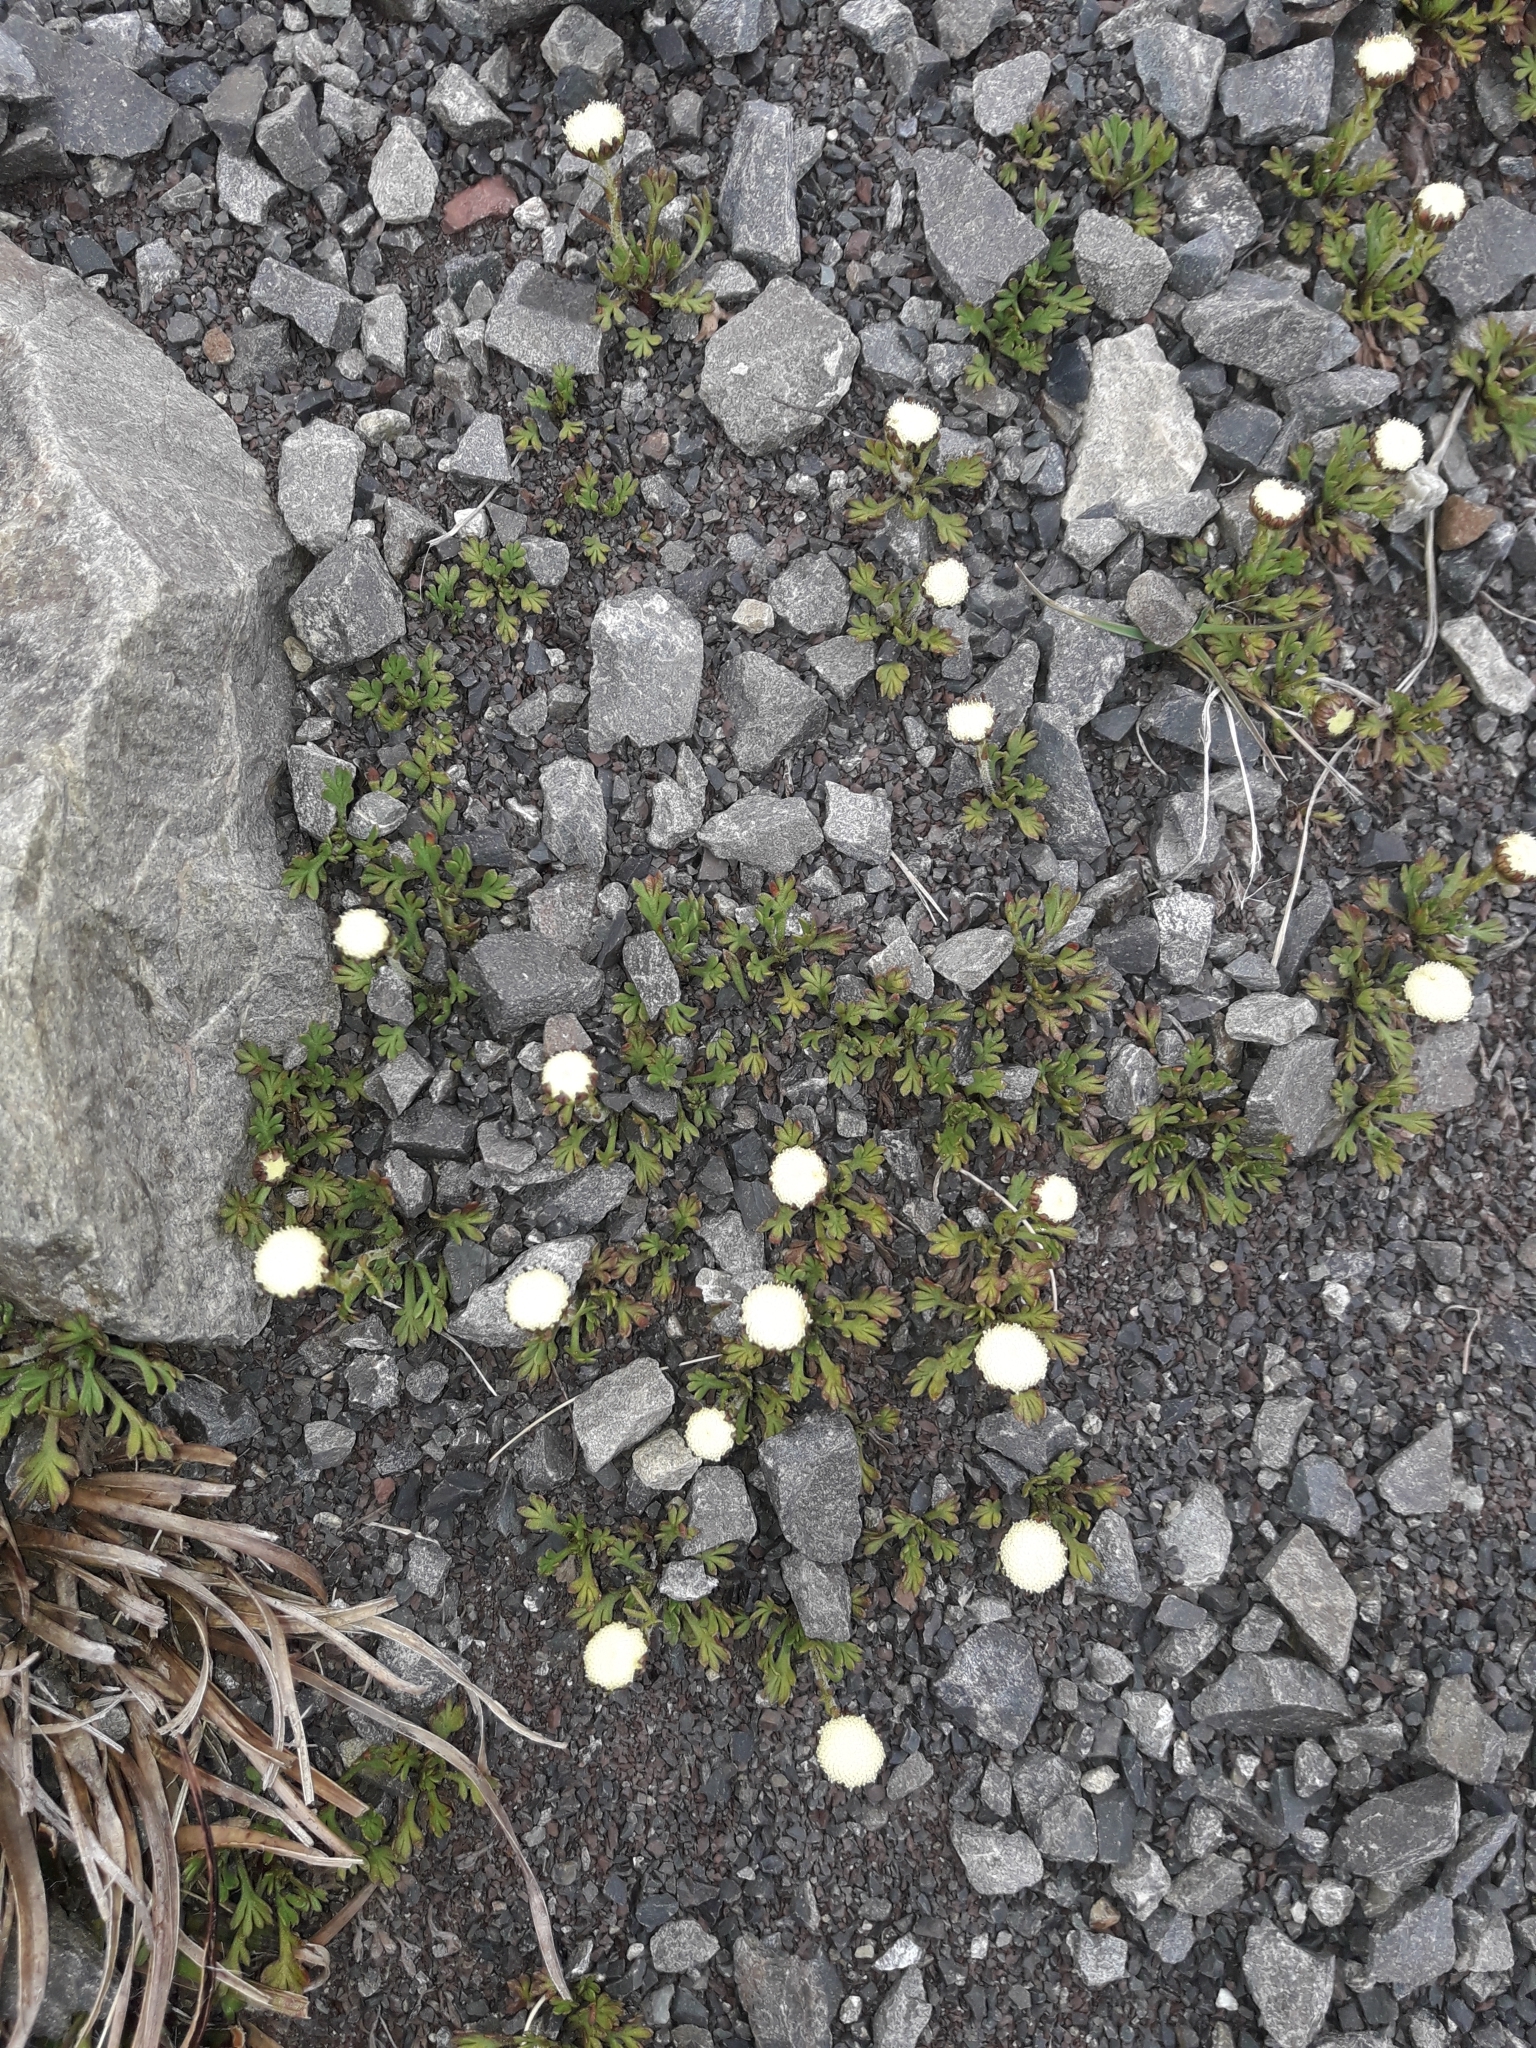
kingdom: Plantae
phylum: Tracheophyta
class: Magnoliopsida
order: Asterales
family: Asteraceae
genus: Leptinella
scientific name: Leptinella pyrethrifolia
